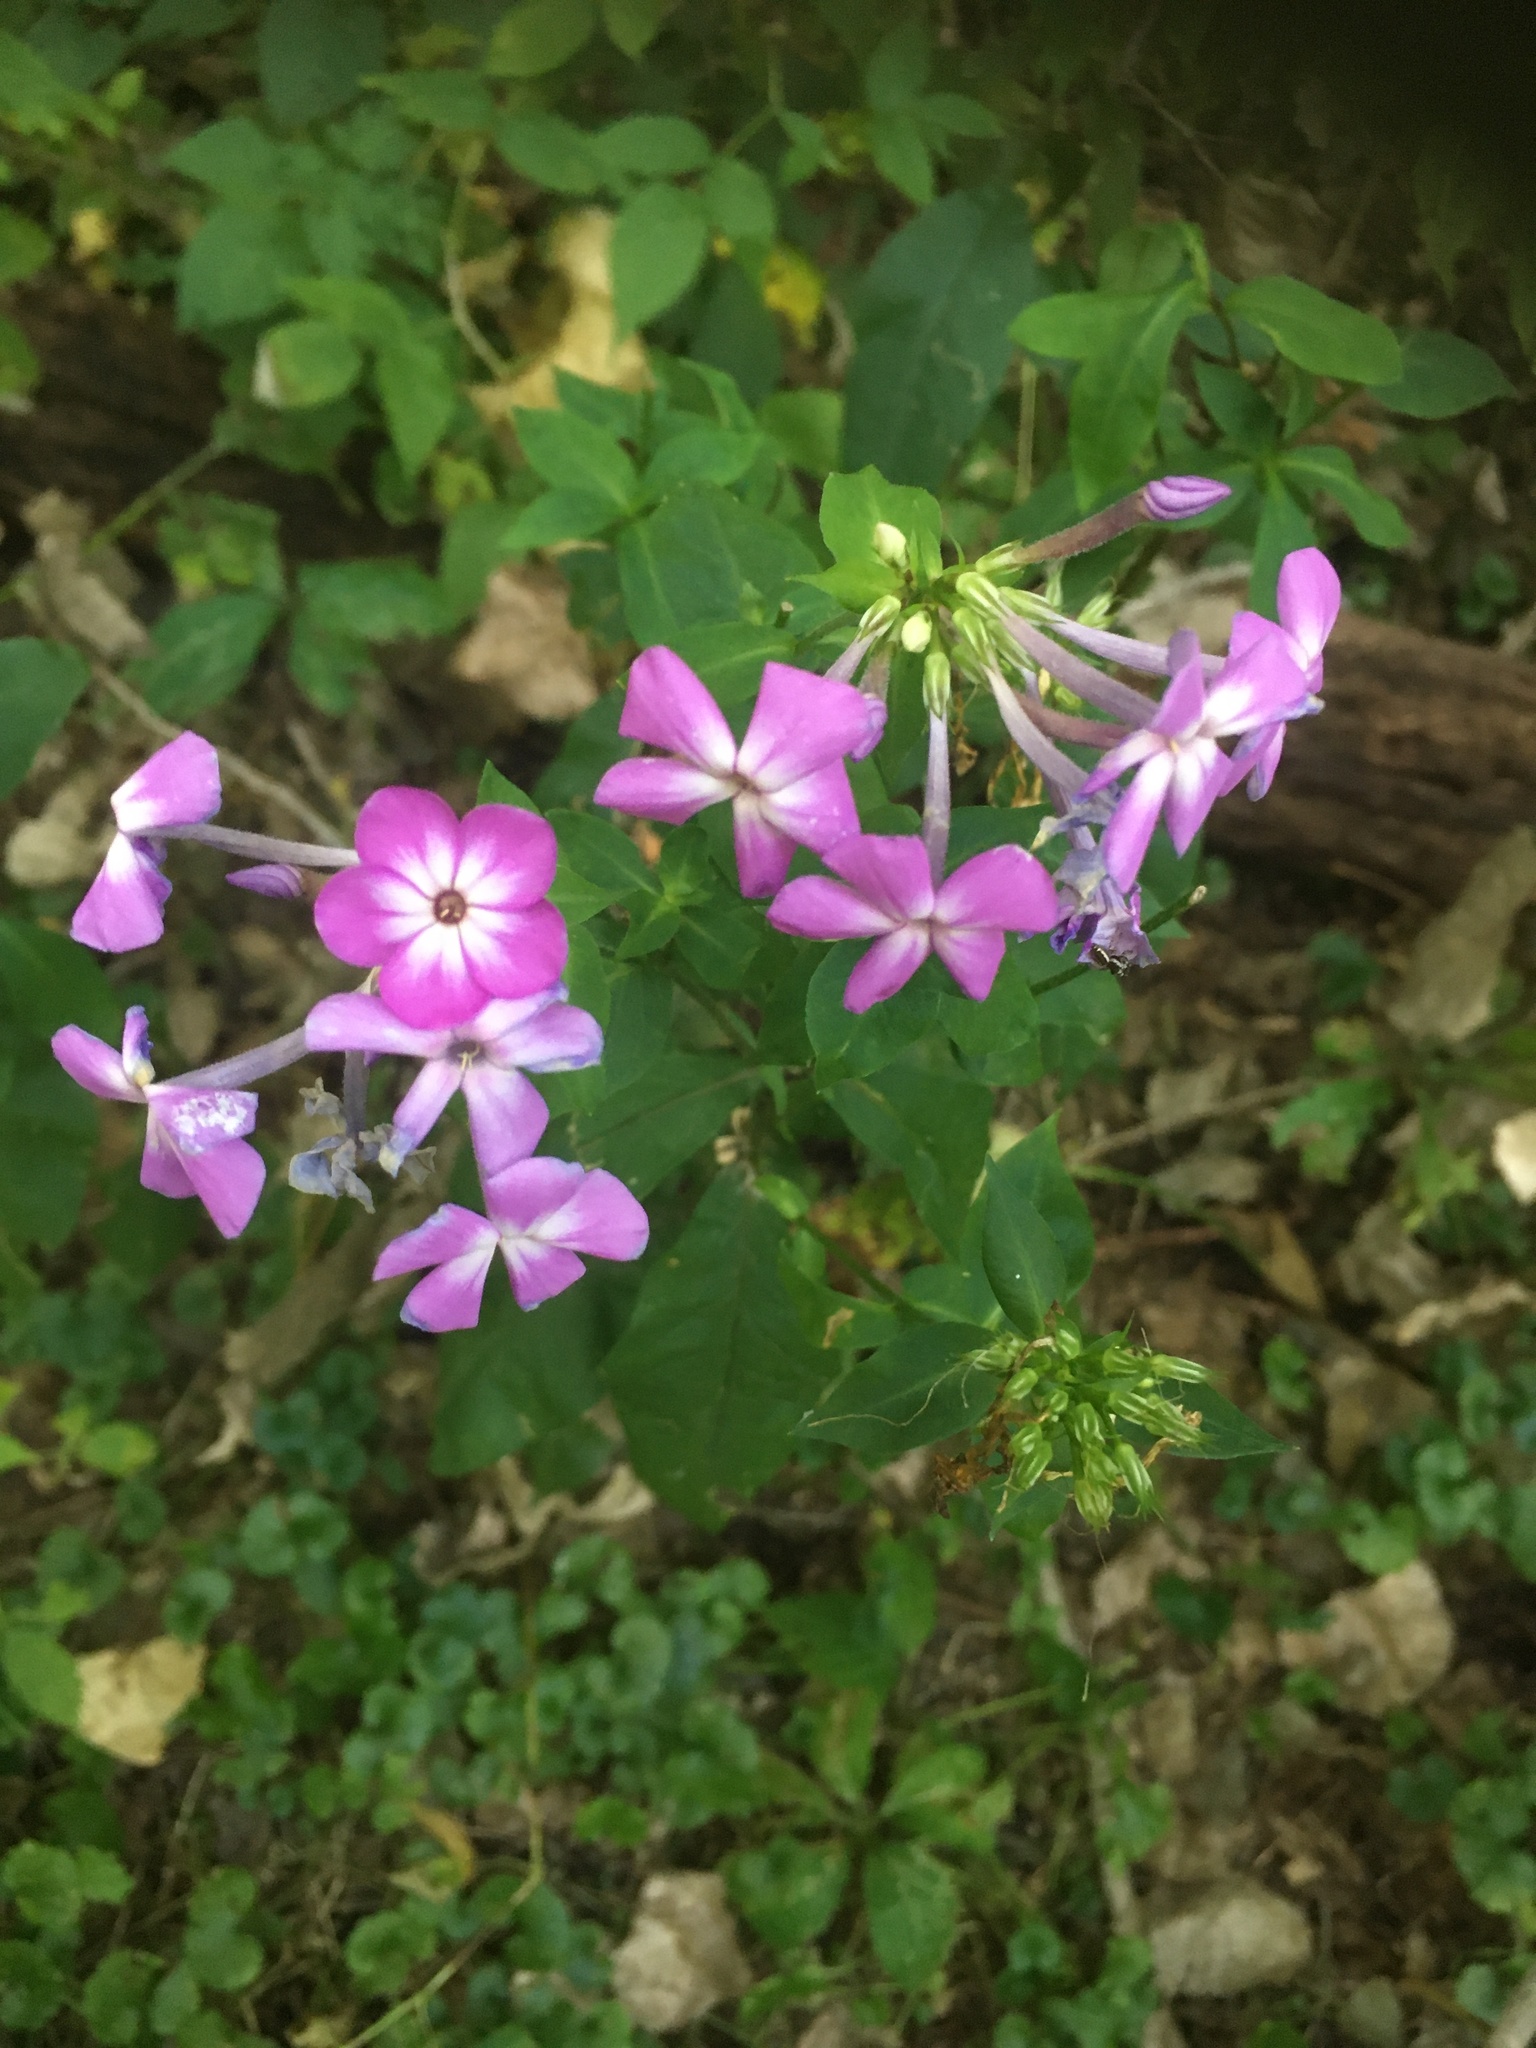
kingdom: Plantae
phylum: Tracheophyta
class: Magnoliopsida
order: Ericales
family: Polemoniaceae
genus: Phlox
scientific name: Phlox paniculata
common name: Fall phlox
